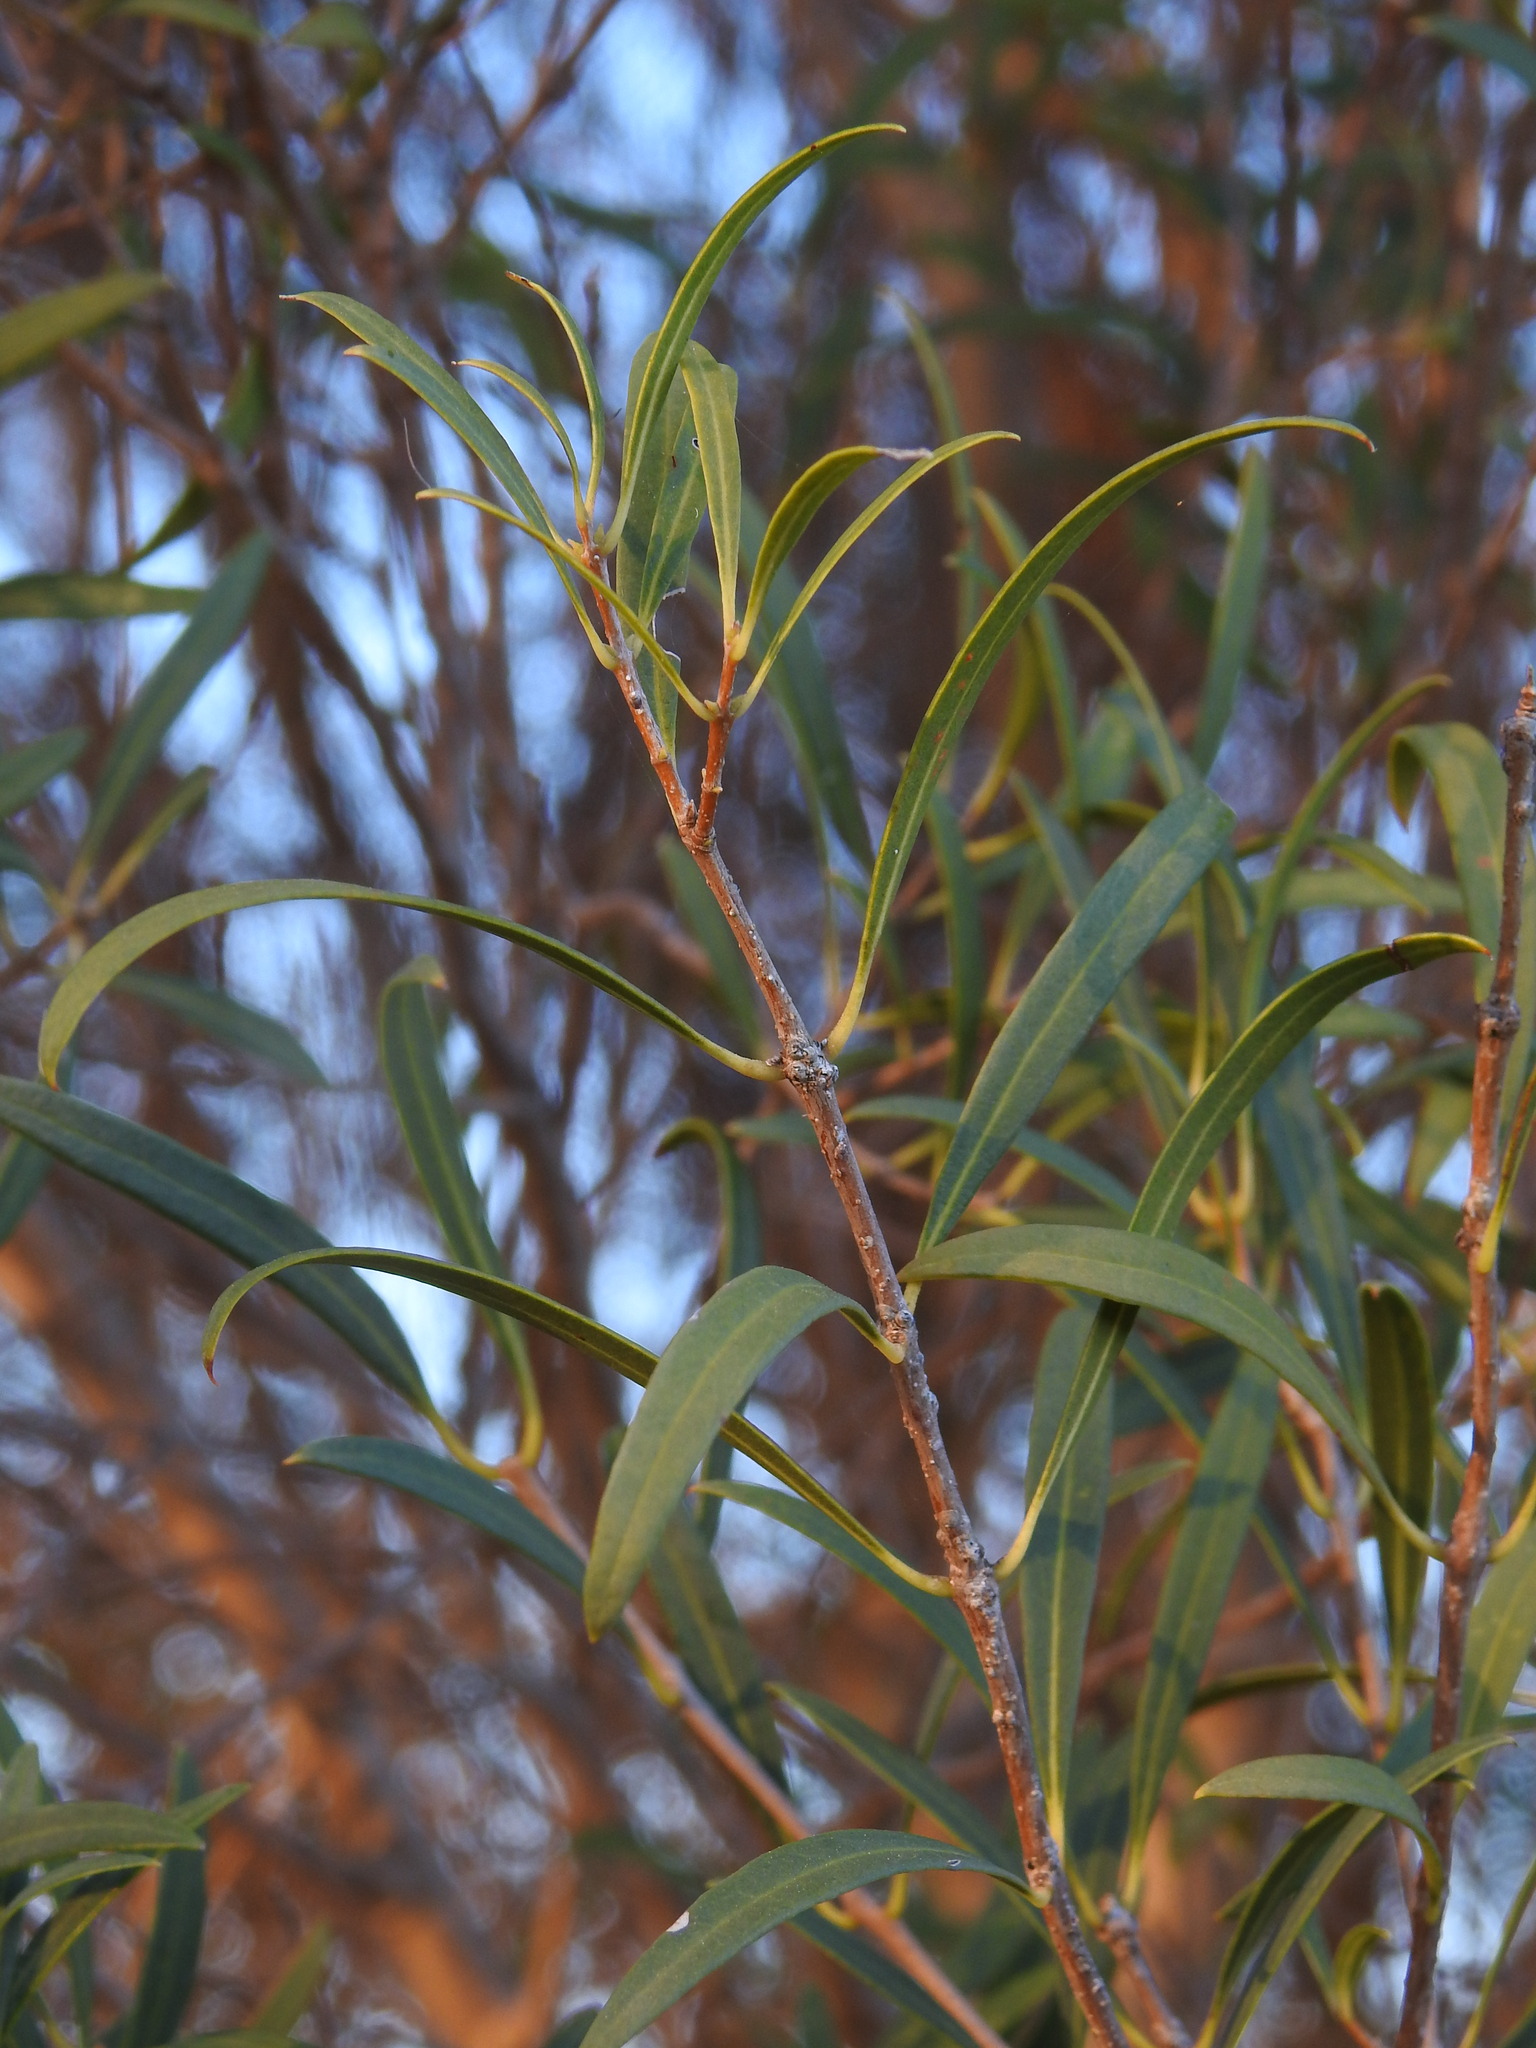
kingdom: Plantae
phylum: Tracheophyta
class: Magnoliopsida
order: Lamiales
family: Oleaceae
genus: Phillyrea
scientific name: Phillyrea angustifolia
